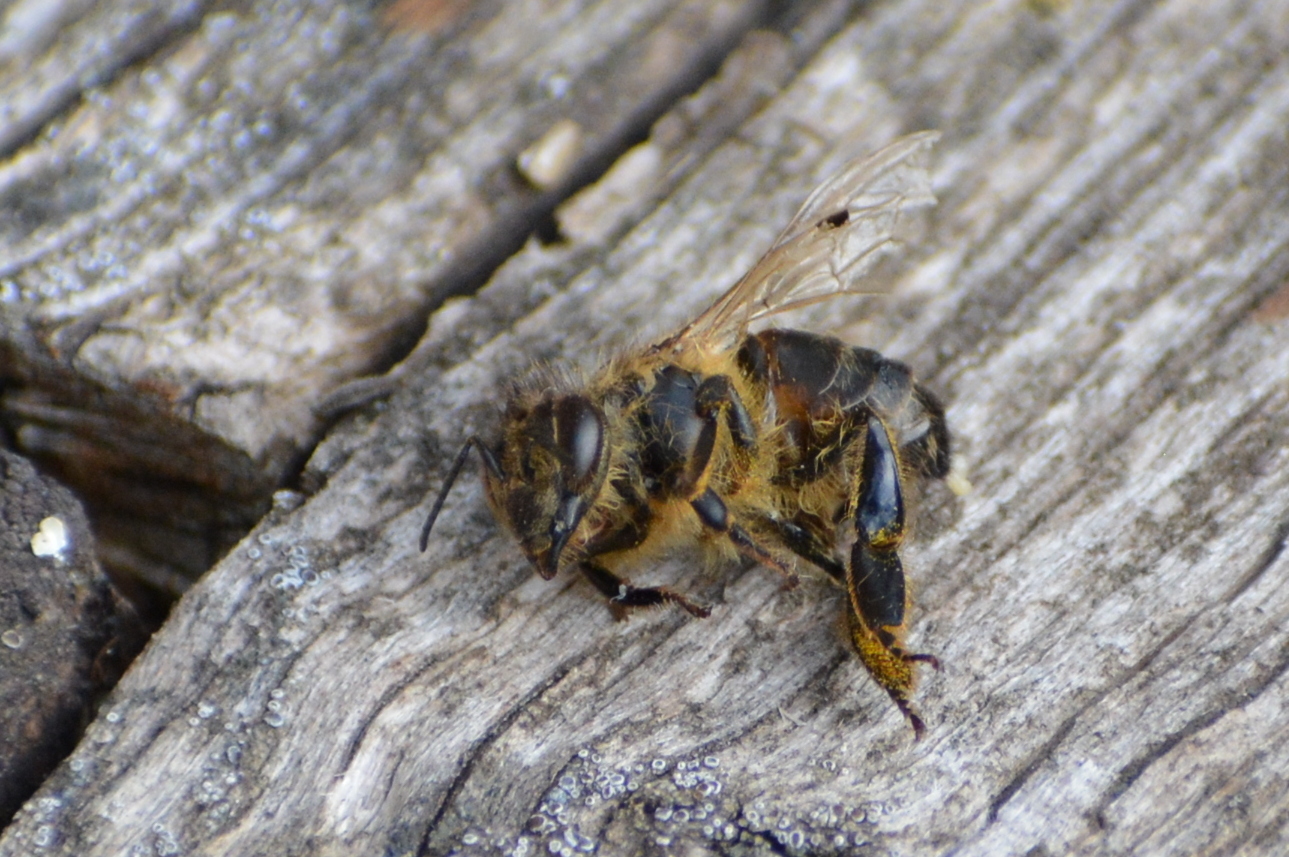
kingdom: Animalia
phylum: Arthropoda
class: Insecta
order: Hymenoptera
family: Apidae
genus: Apis
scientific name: Apis mellifera
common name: Honey bee
